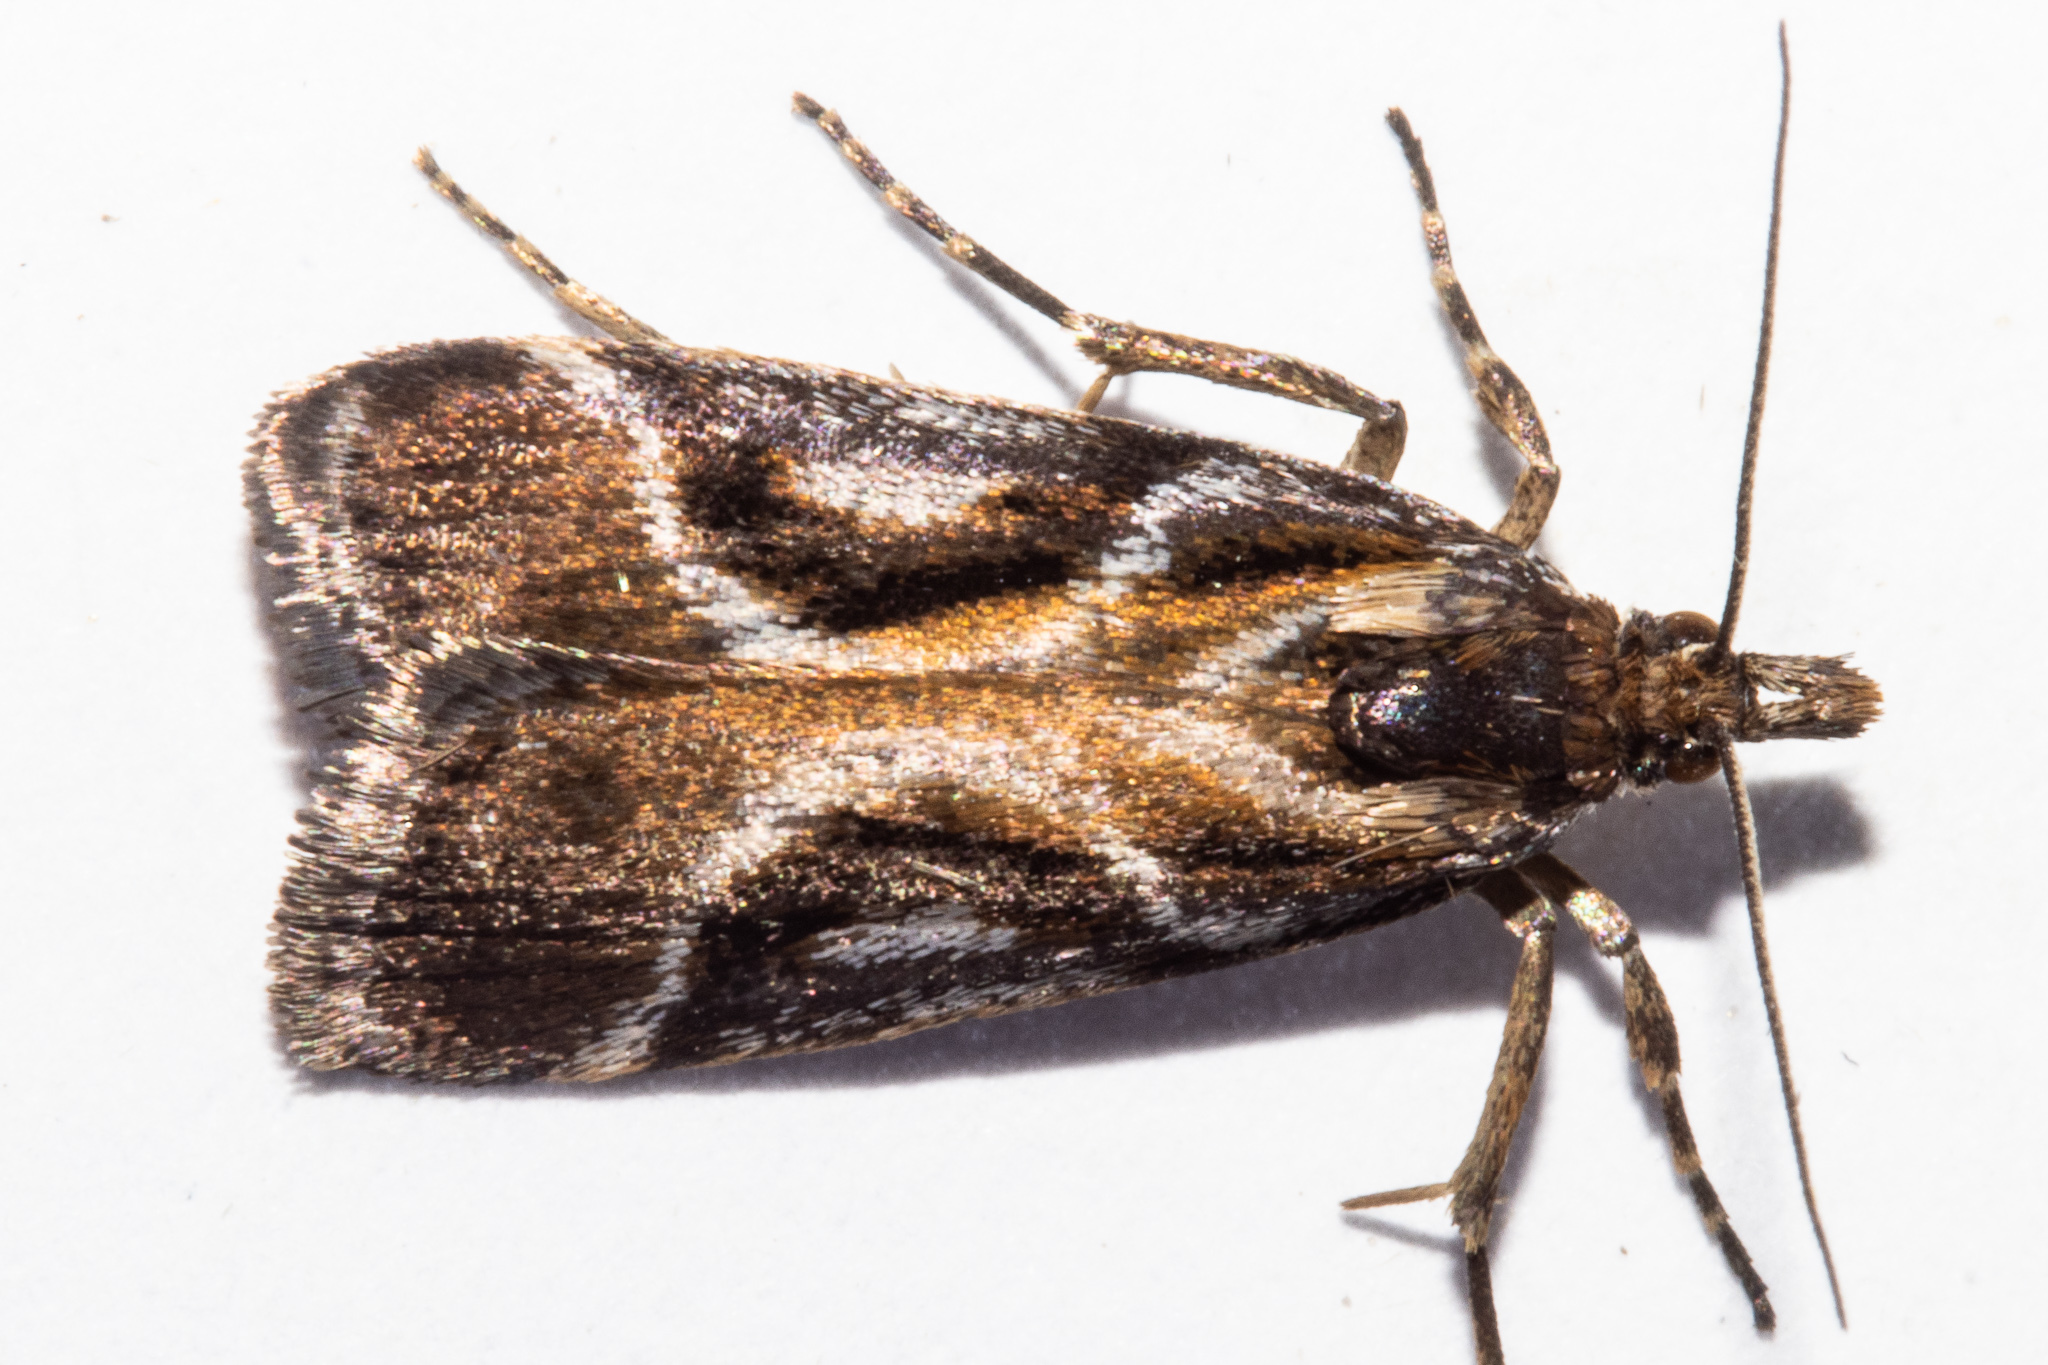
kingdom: Animalia
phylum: Arthropoda
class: Insecta
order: Lepidoptera
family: Crambidae
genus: Eudonia
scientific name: Eudonia hemicycla
